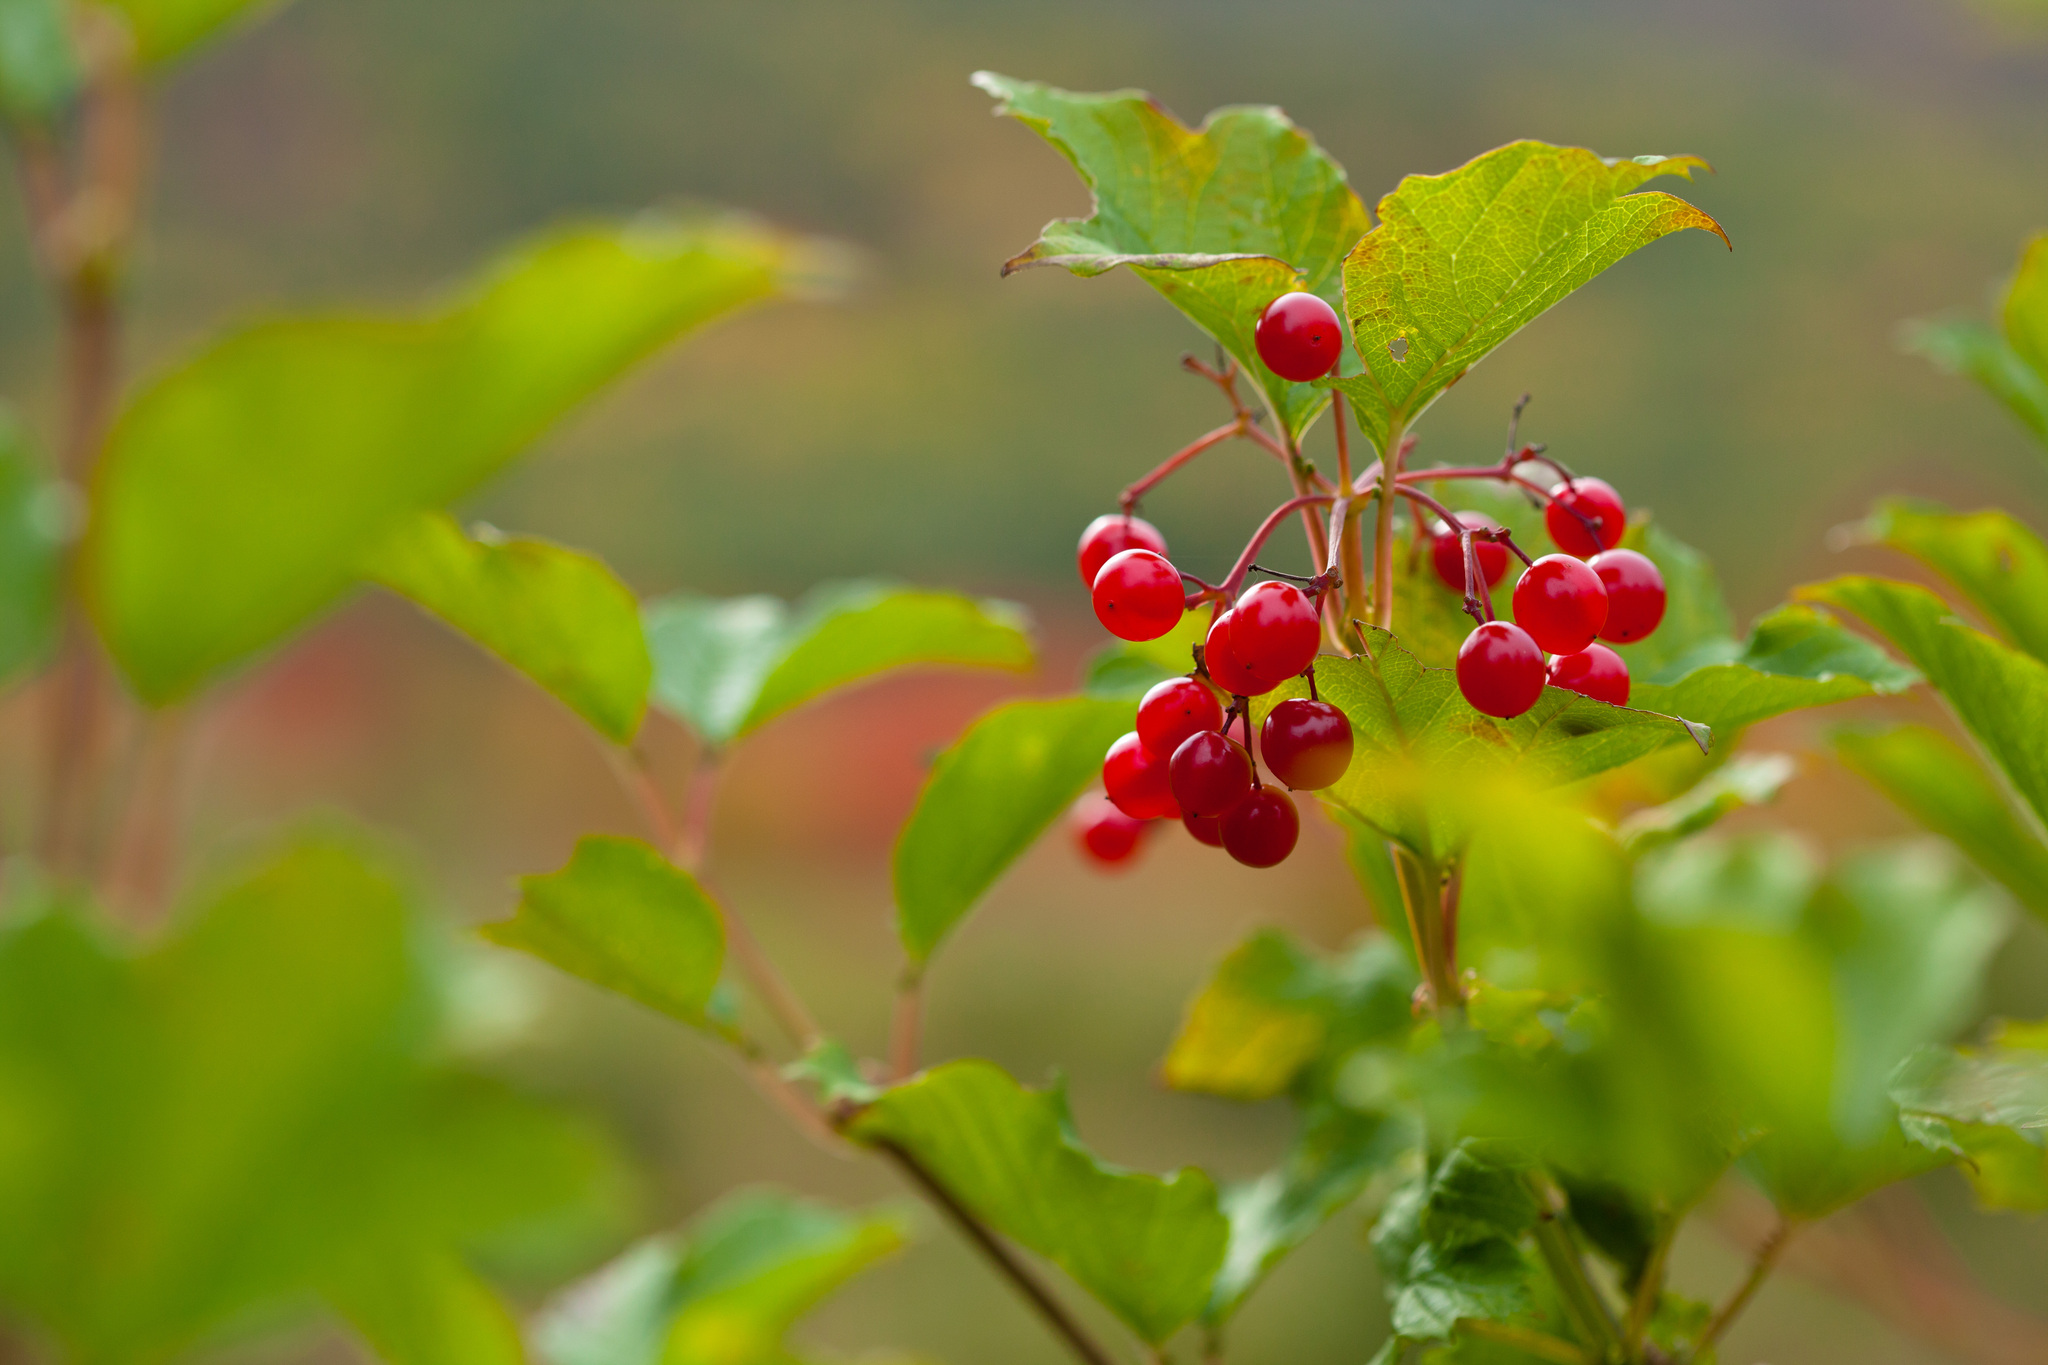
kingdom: Plantae
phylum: Tracheophyta
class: Magnoliopsida
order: Dipsacales
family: Viburnaceae
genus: Viburnum
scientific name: Viburnum opulus
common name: Guelder-rose
